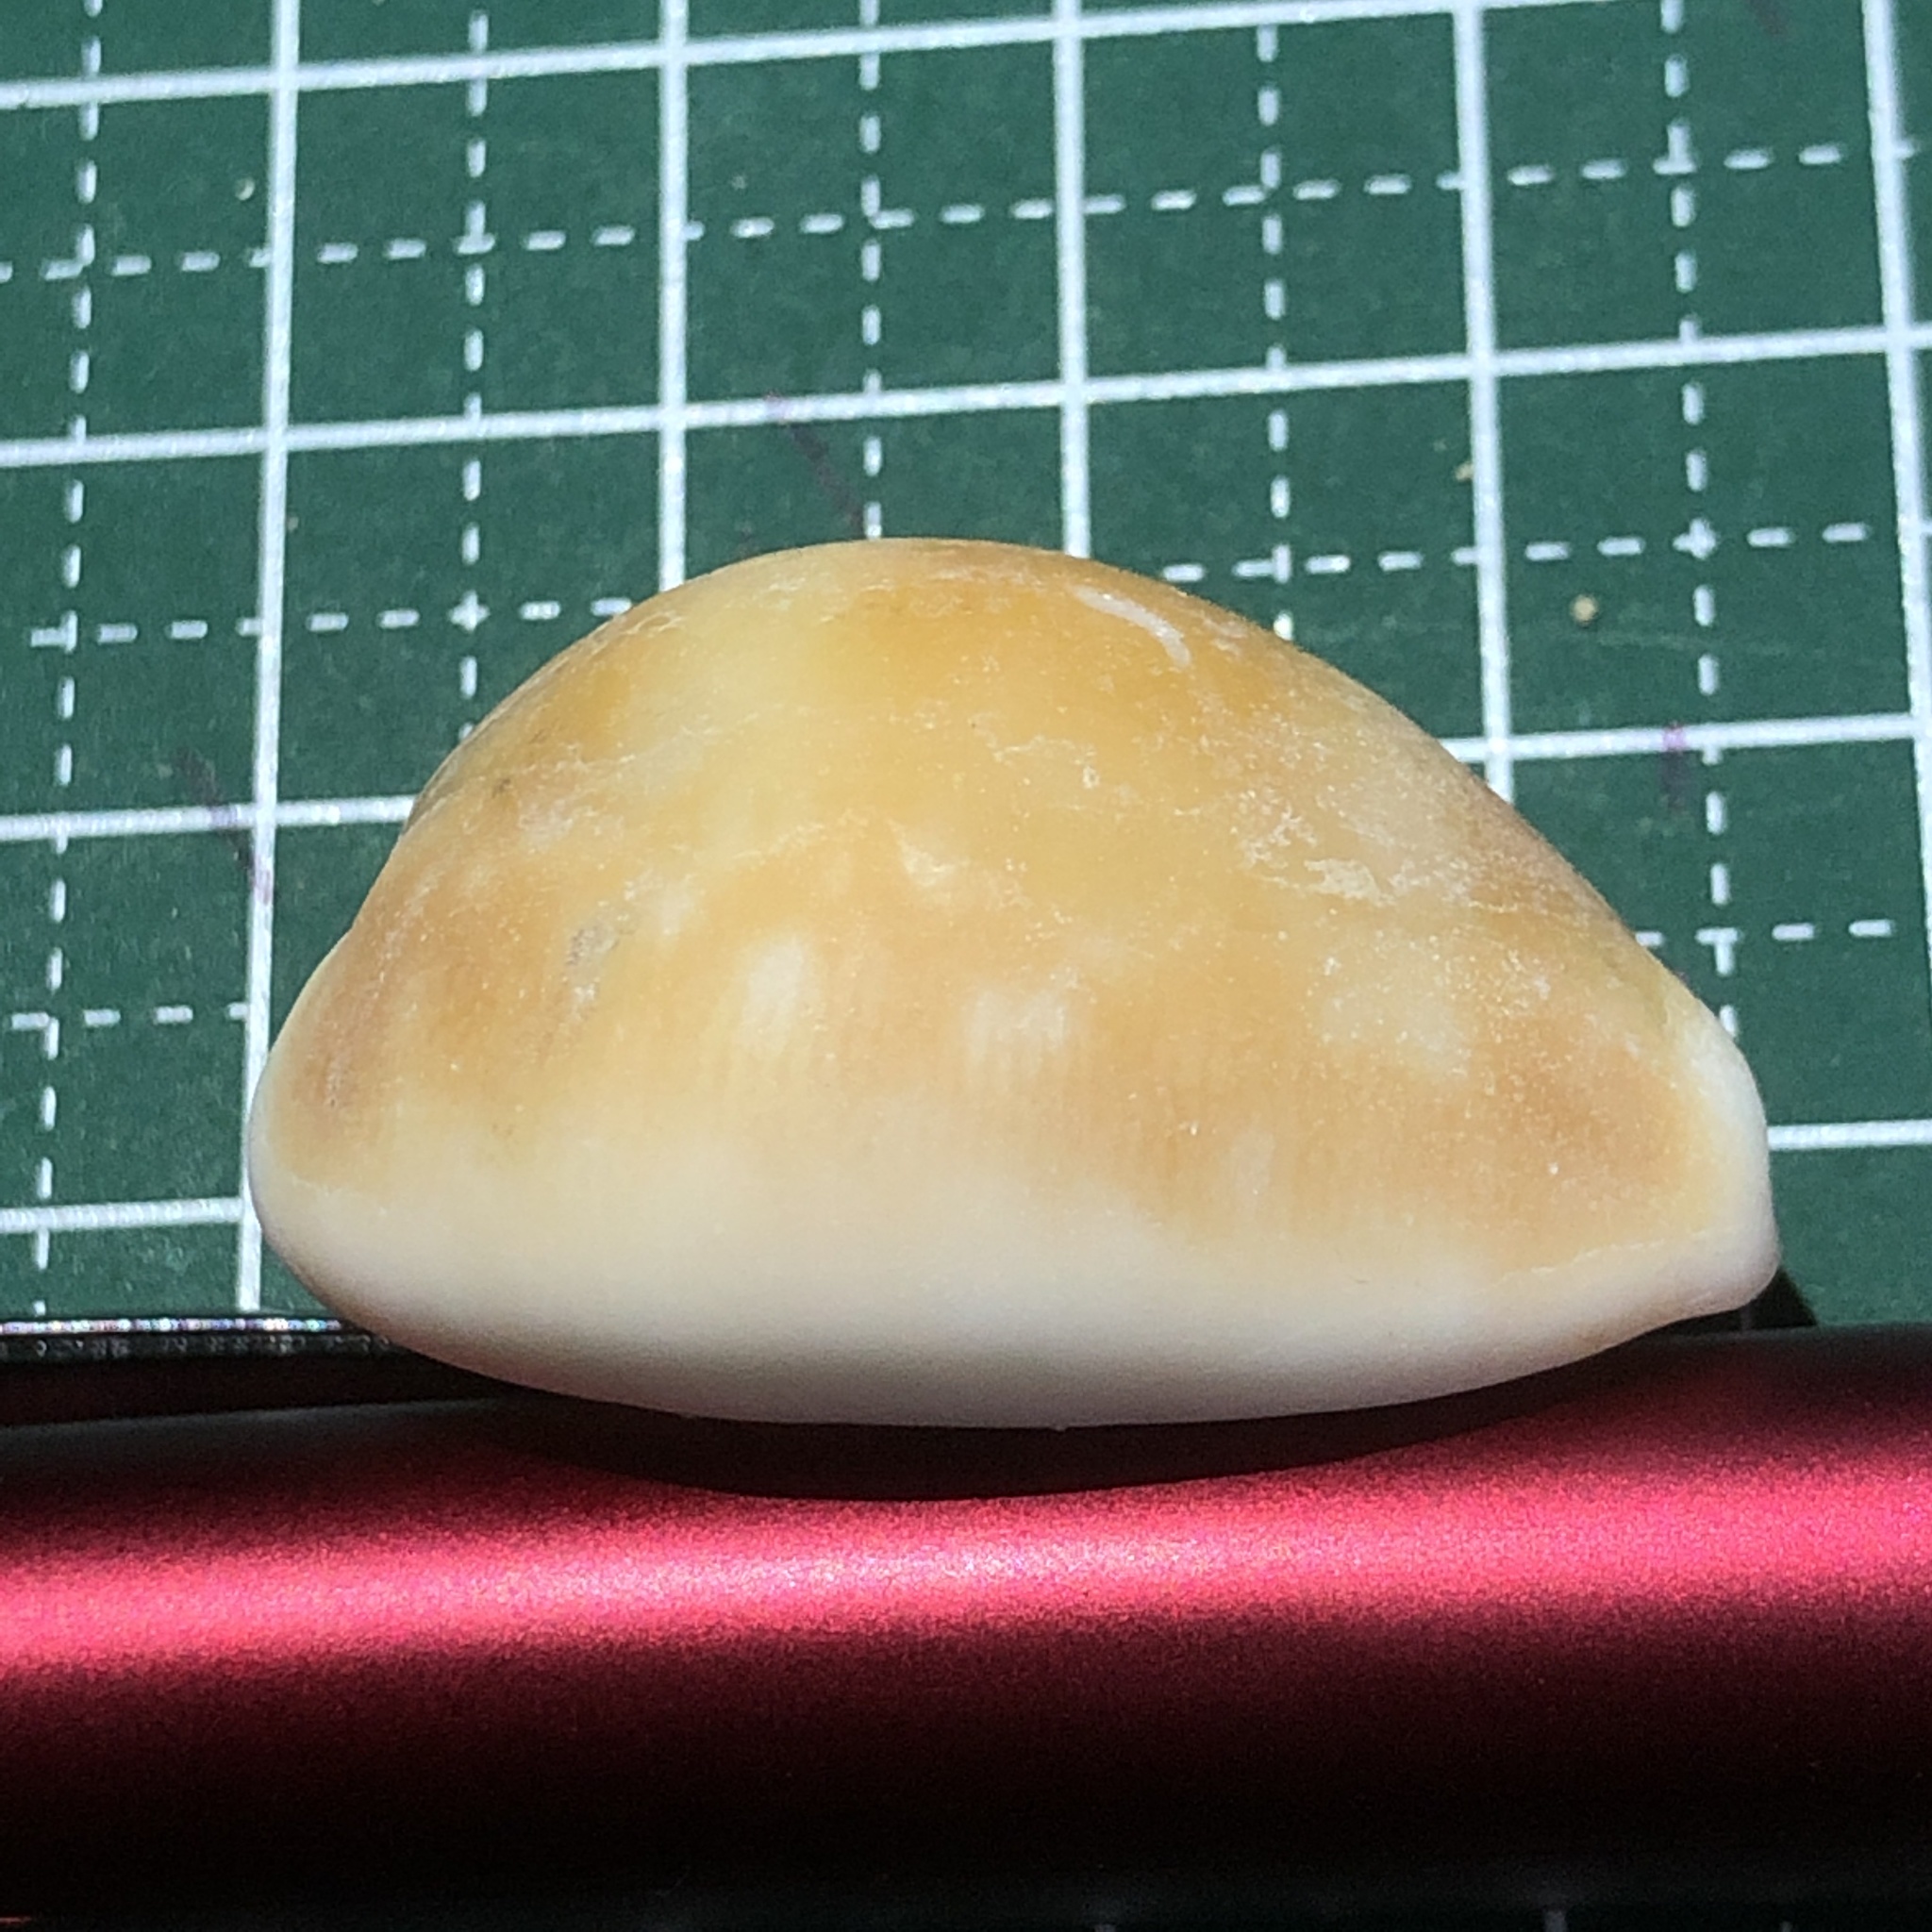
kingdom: Animalia
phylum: Mollusca
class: Gastropoda
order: Littorinimorpha
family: Cypraeidae
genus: Lyncina
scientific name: Lyncina vitellus
